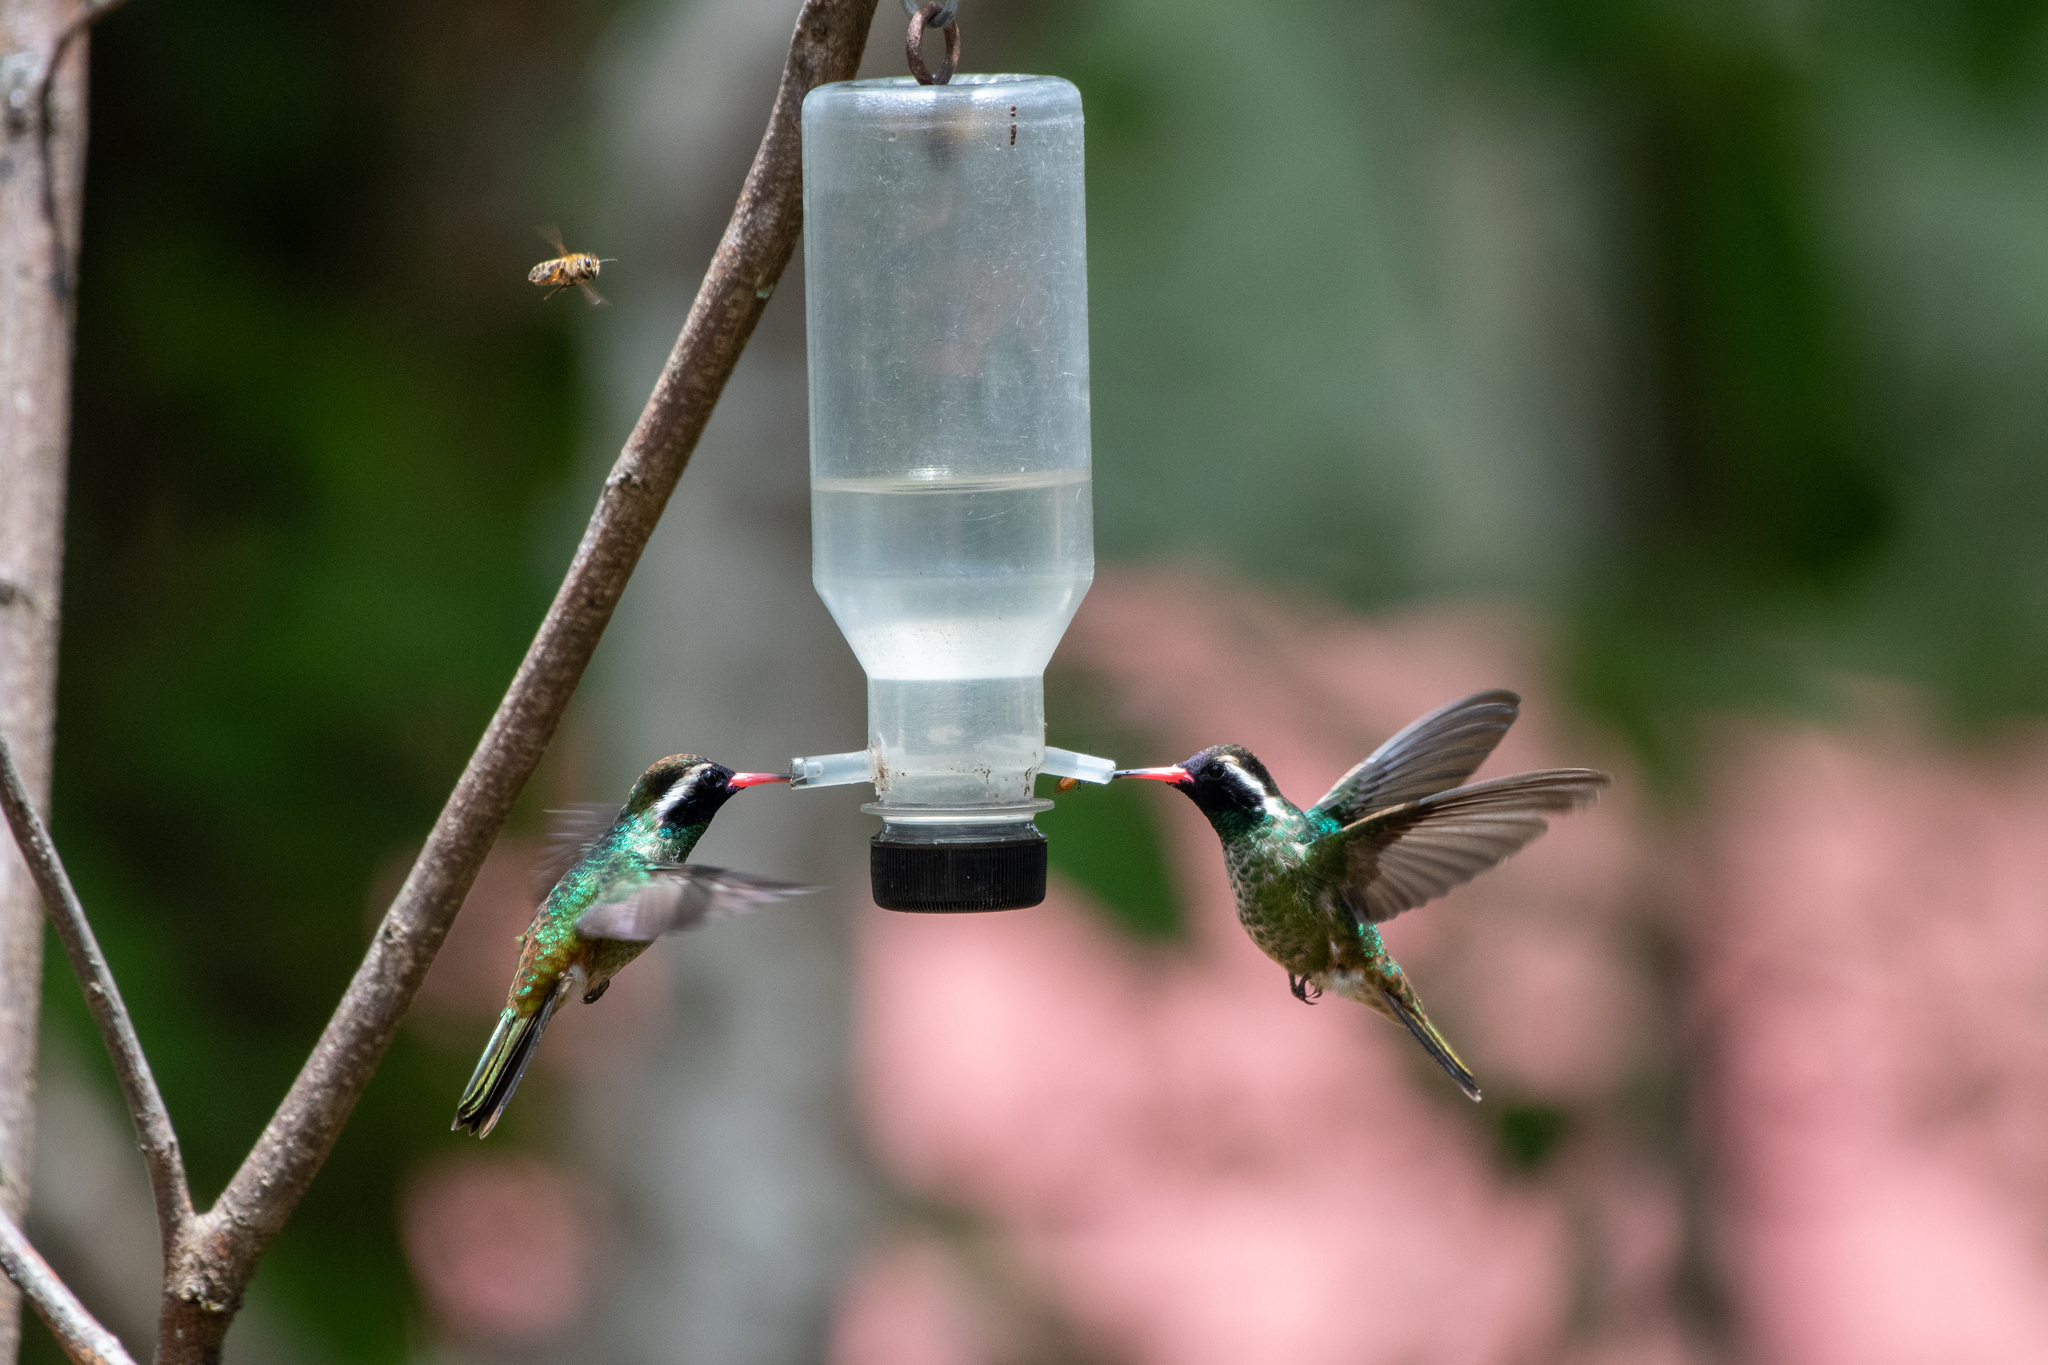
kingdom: Animalia
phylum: Chordata
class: Aves
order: Apodiformes
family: Trochilidae
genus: Basilinna
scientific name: Basilinna leucotis
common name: White-eared hummingbird
